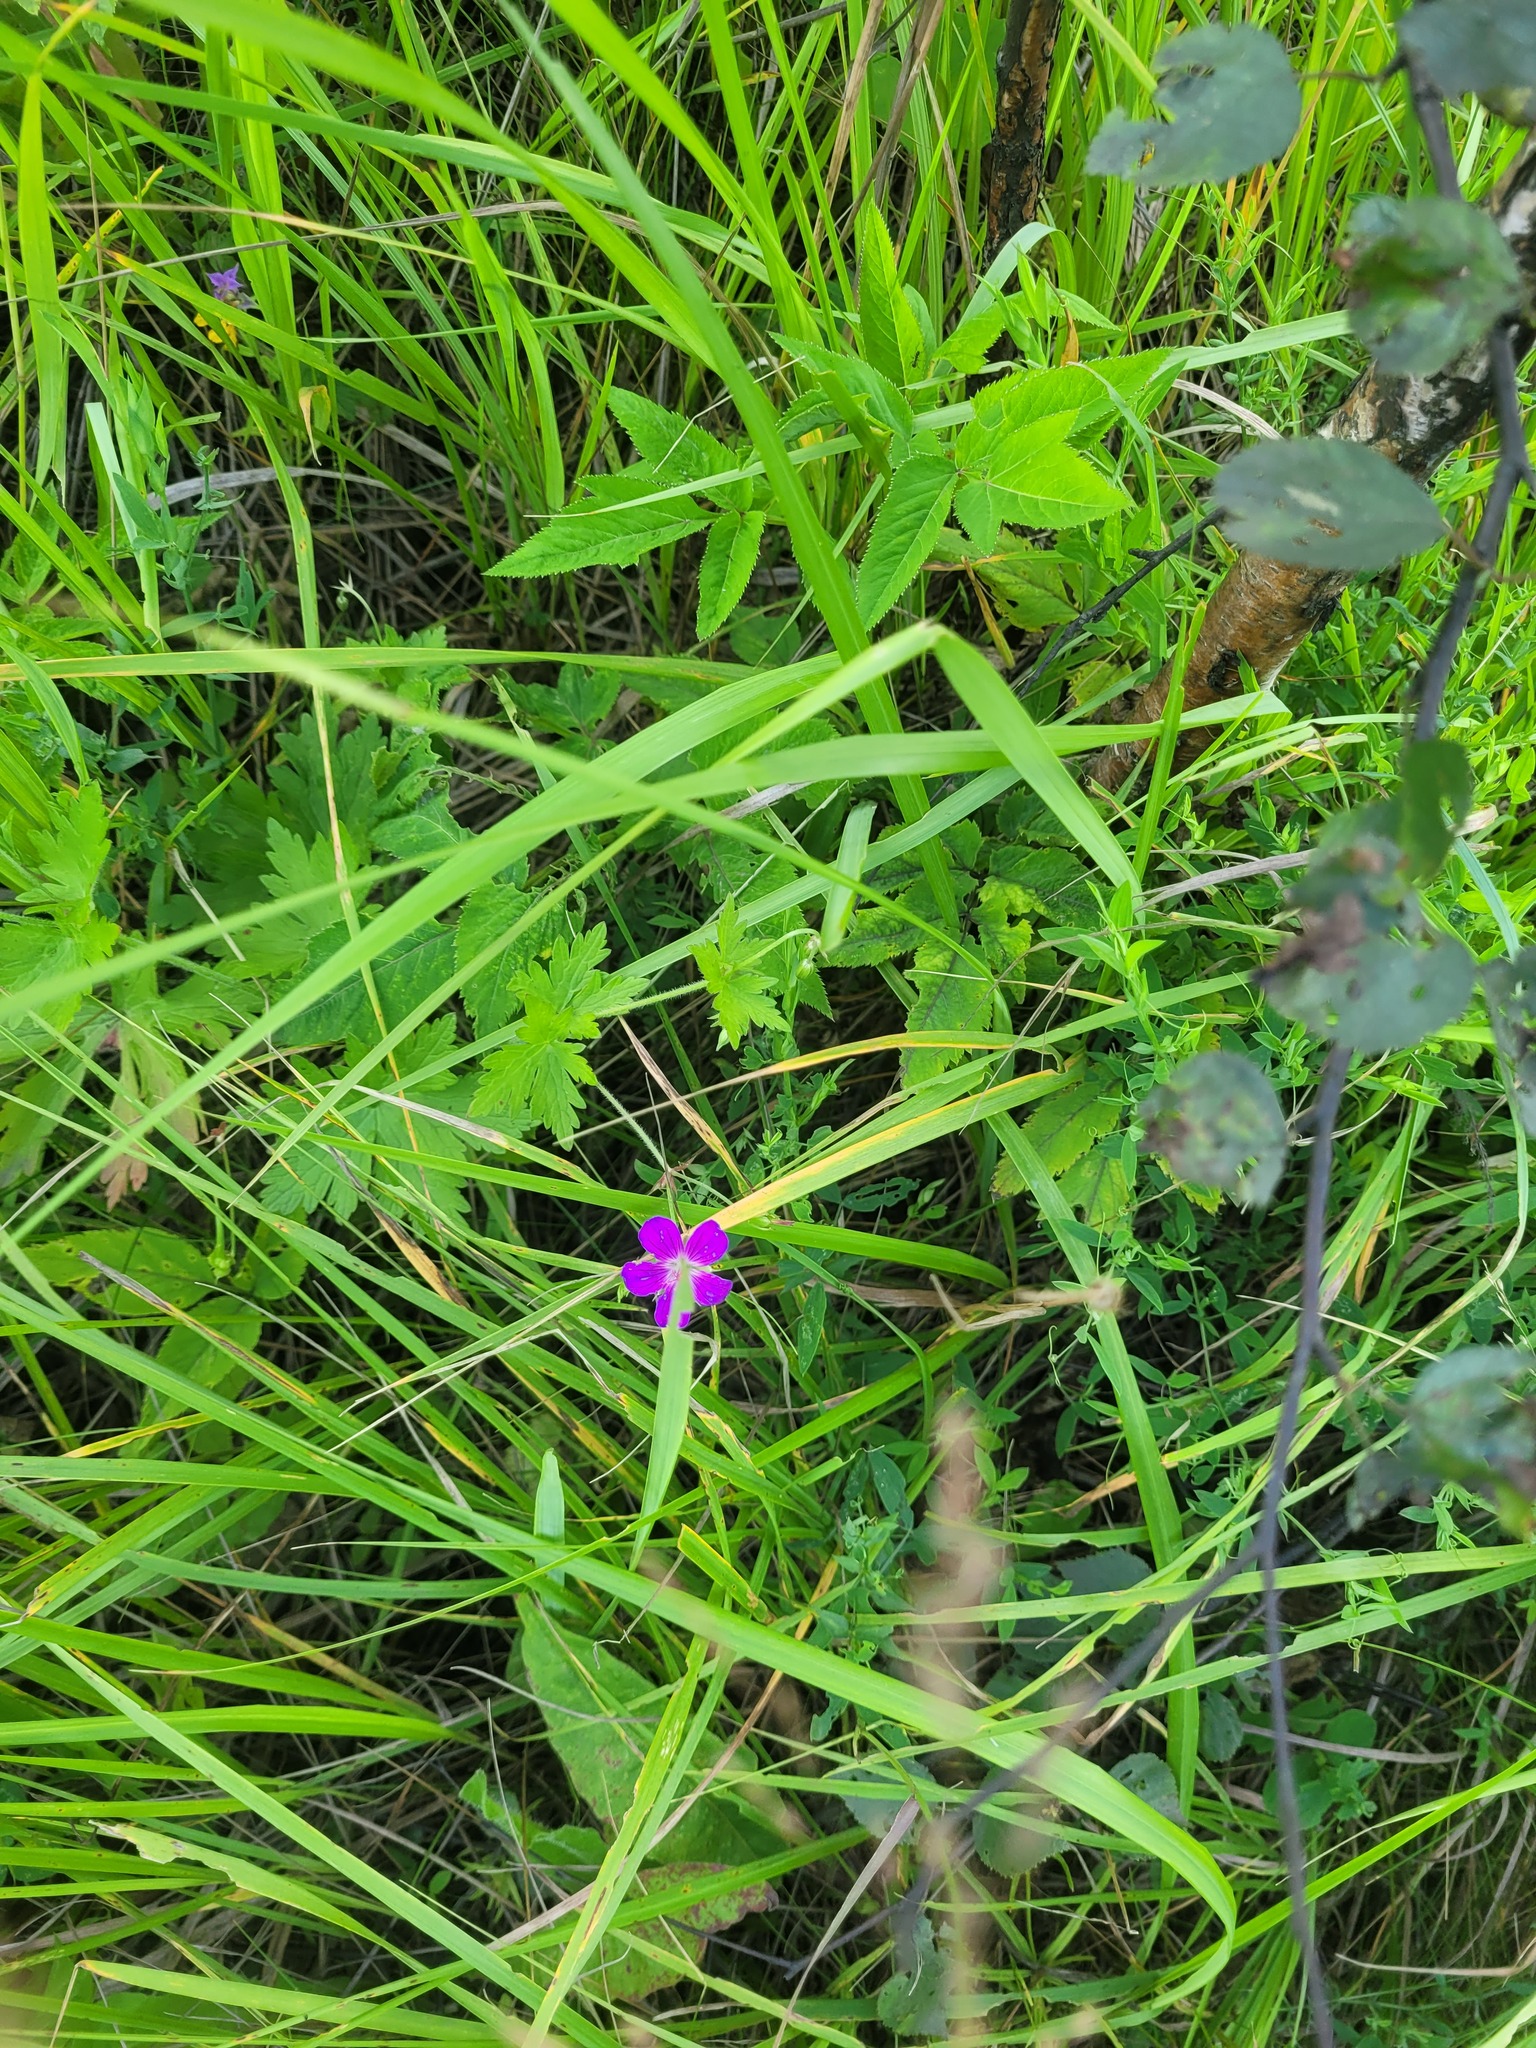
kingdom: Plantae
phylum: Tracheophyta
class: Magnoliopsida
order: Geraniales
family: Geraniaceae
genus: Geranium
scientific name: Geranium palustre
